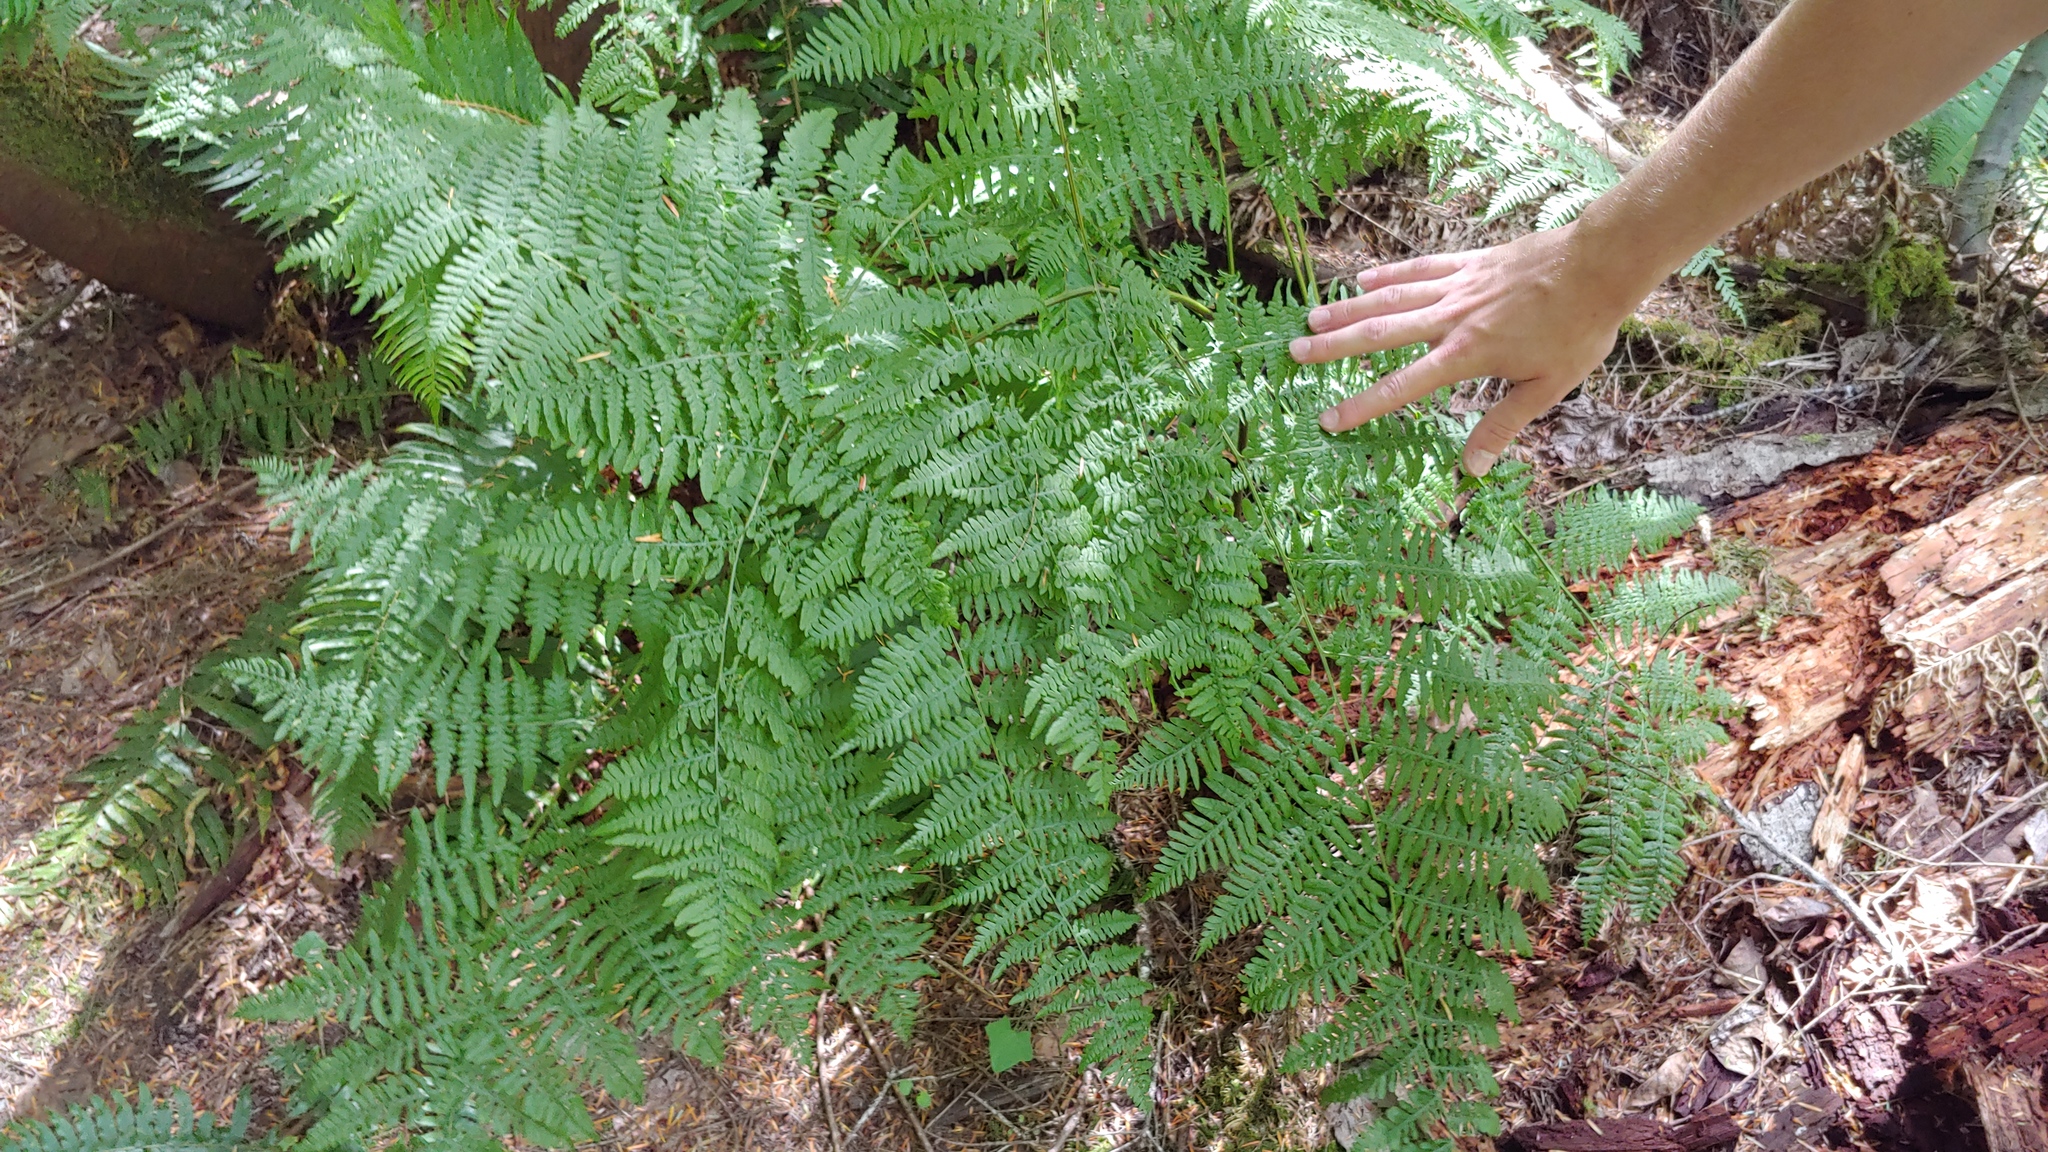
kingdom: Plantae
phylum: Tracheophyta
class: Polypodiopsida
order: Polypodiales
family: Dennstaedtiaceae
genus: Pteridium
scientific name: Pteridium aquilinum
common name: Bracken
